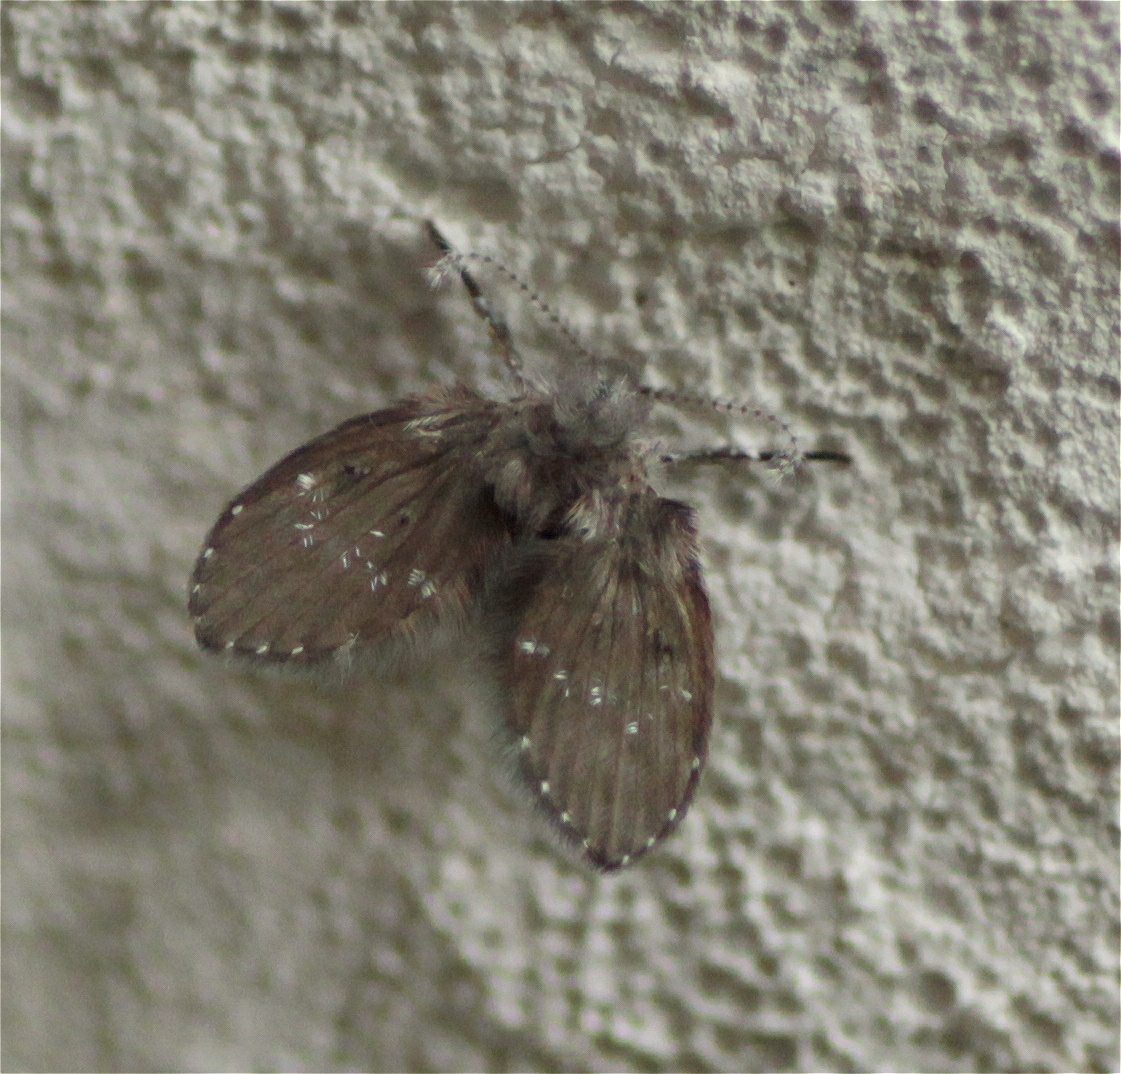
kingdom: Animalia
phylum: Arthropoda
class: Insecta
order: Diptera
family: Psychodidae
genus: Clogmia
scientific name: Clogmia albipunctatus
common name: White-spotted moth fly
